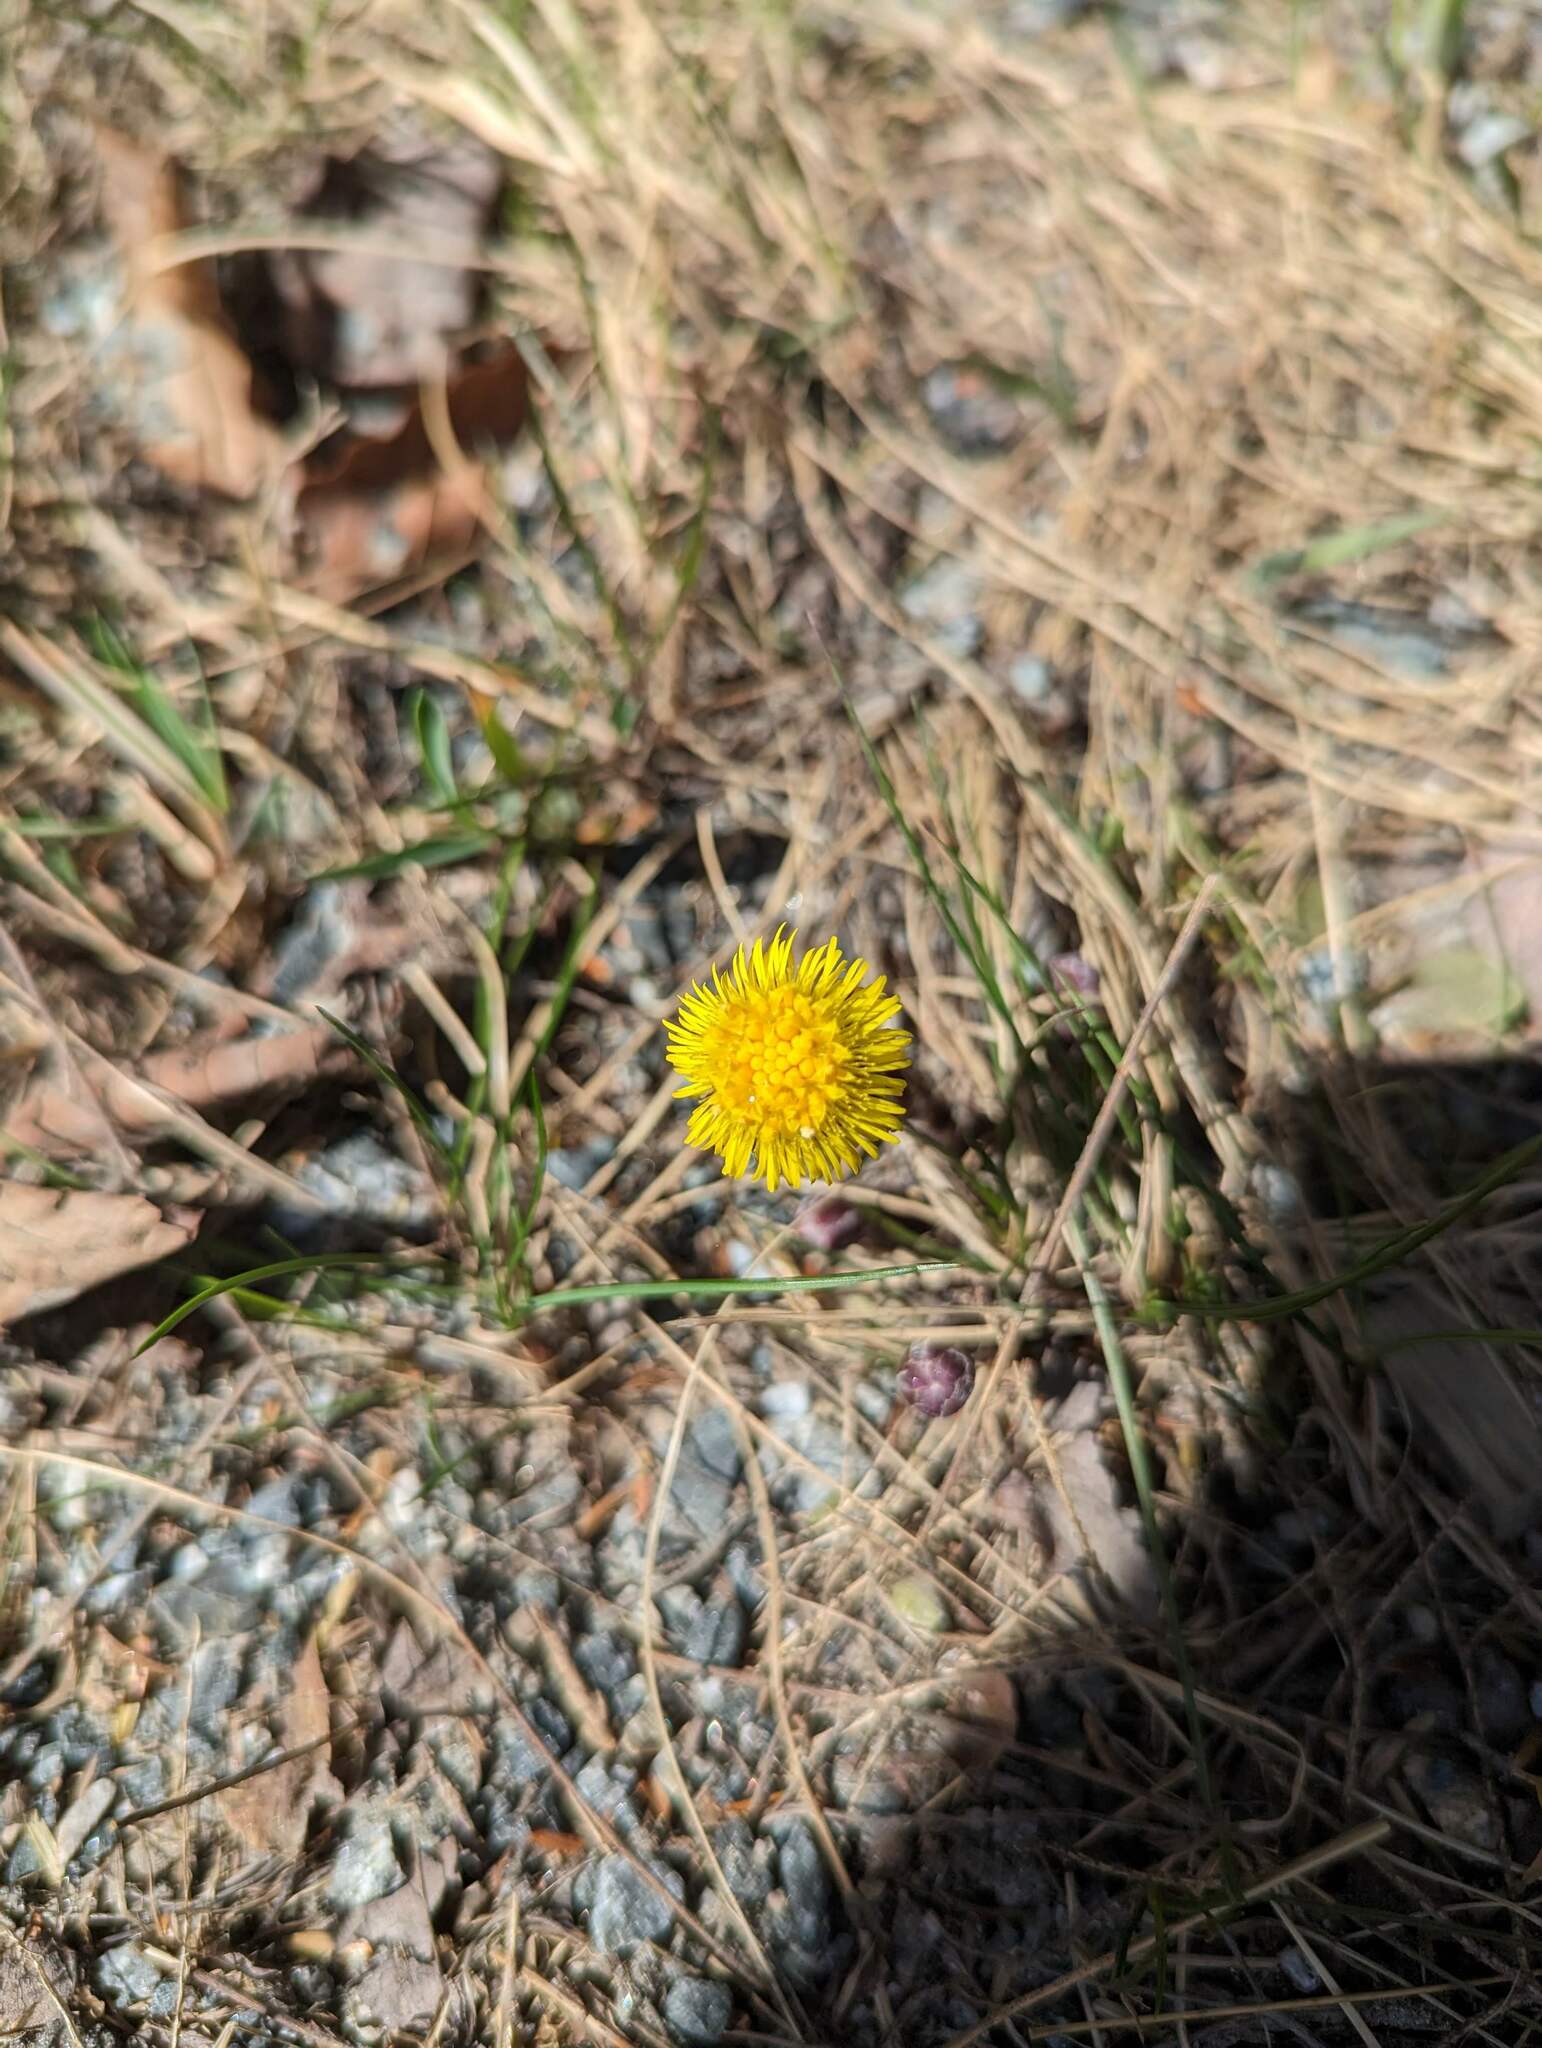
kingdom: Plantae
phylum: Tracheophyta
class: Magnoliopsida
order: Asterales
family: Asteraceae
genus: Tussilago
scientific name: Tussilago farfara
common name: Coltsfoot
